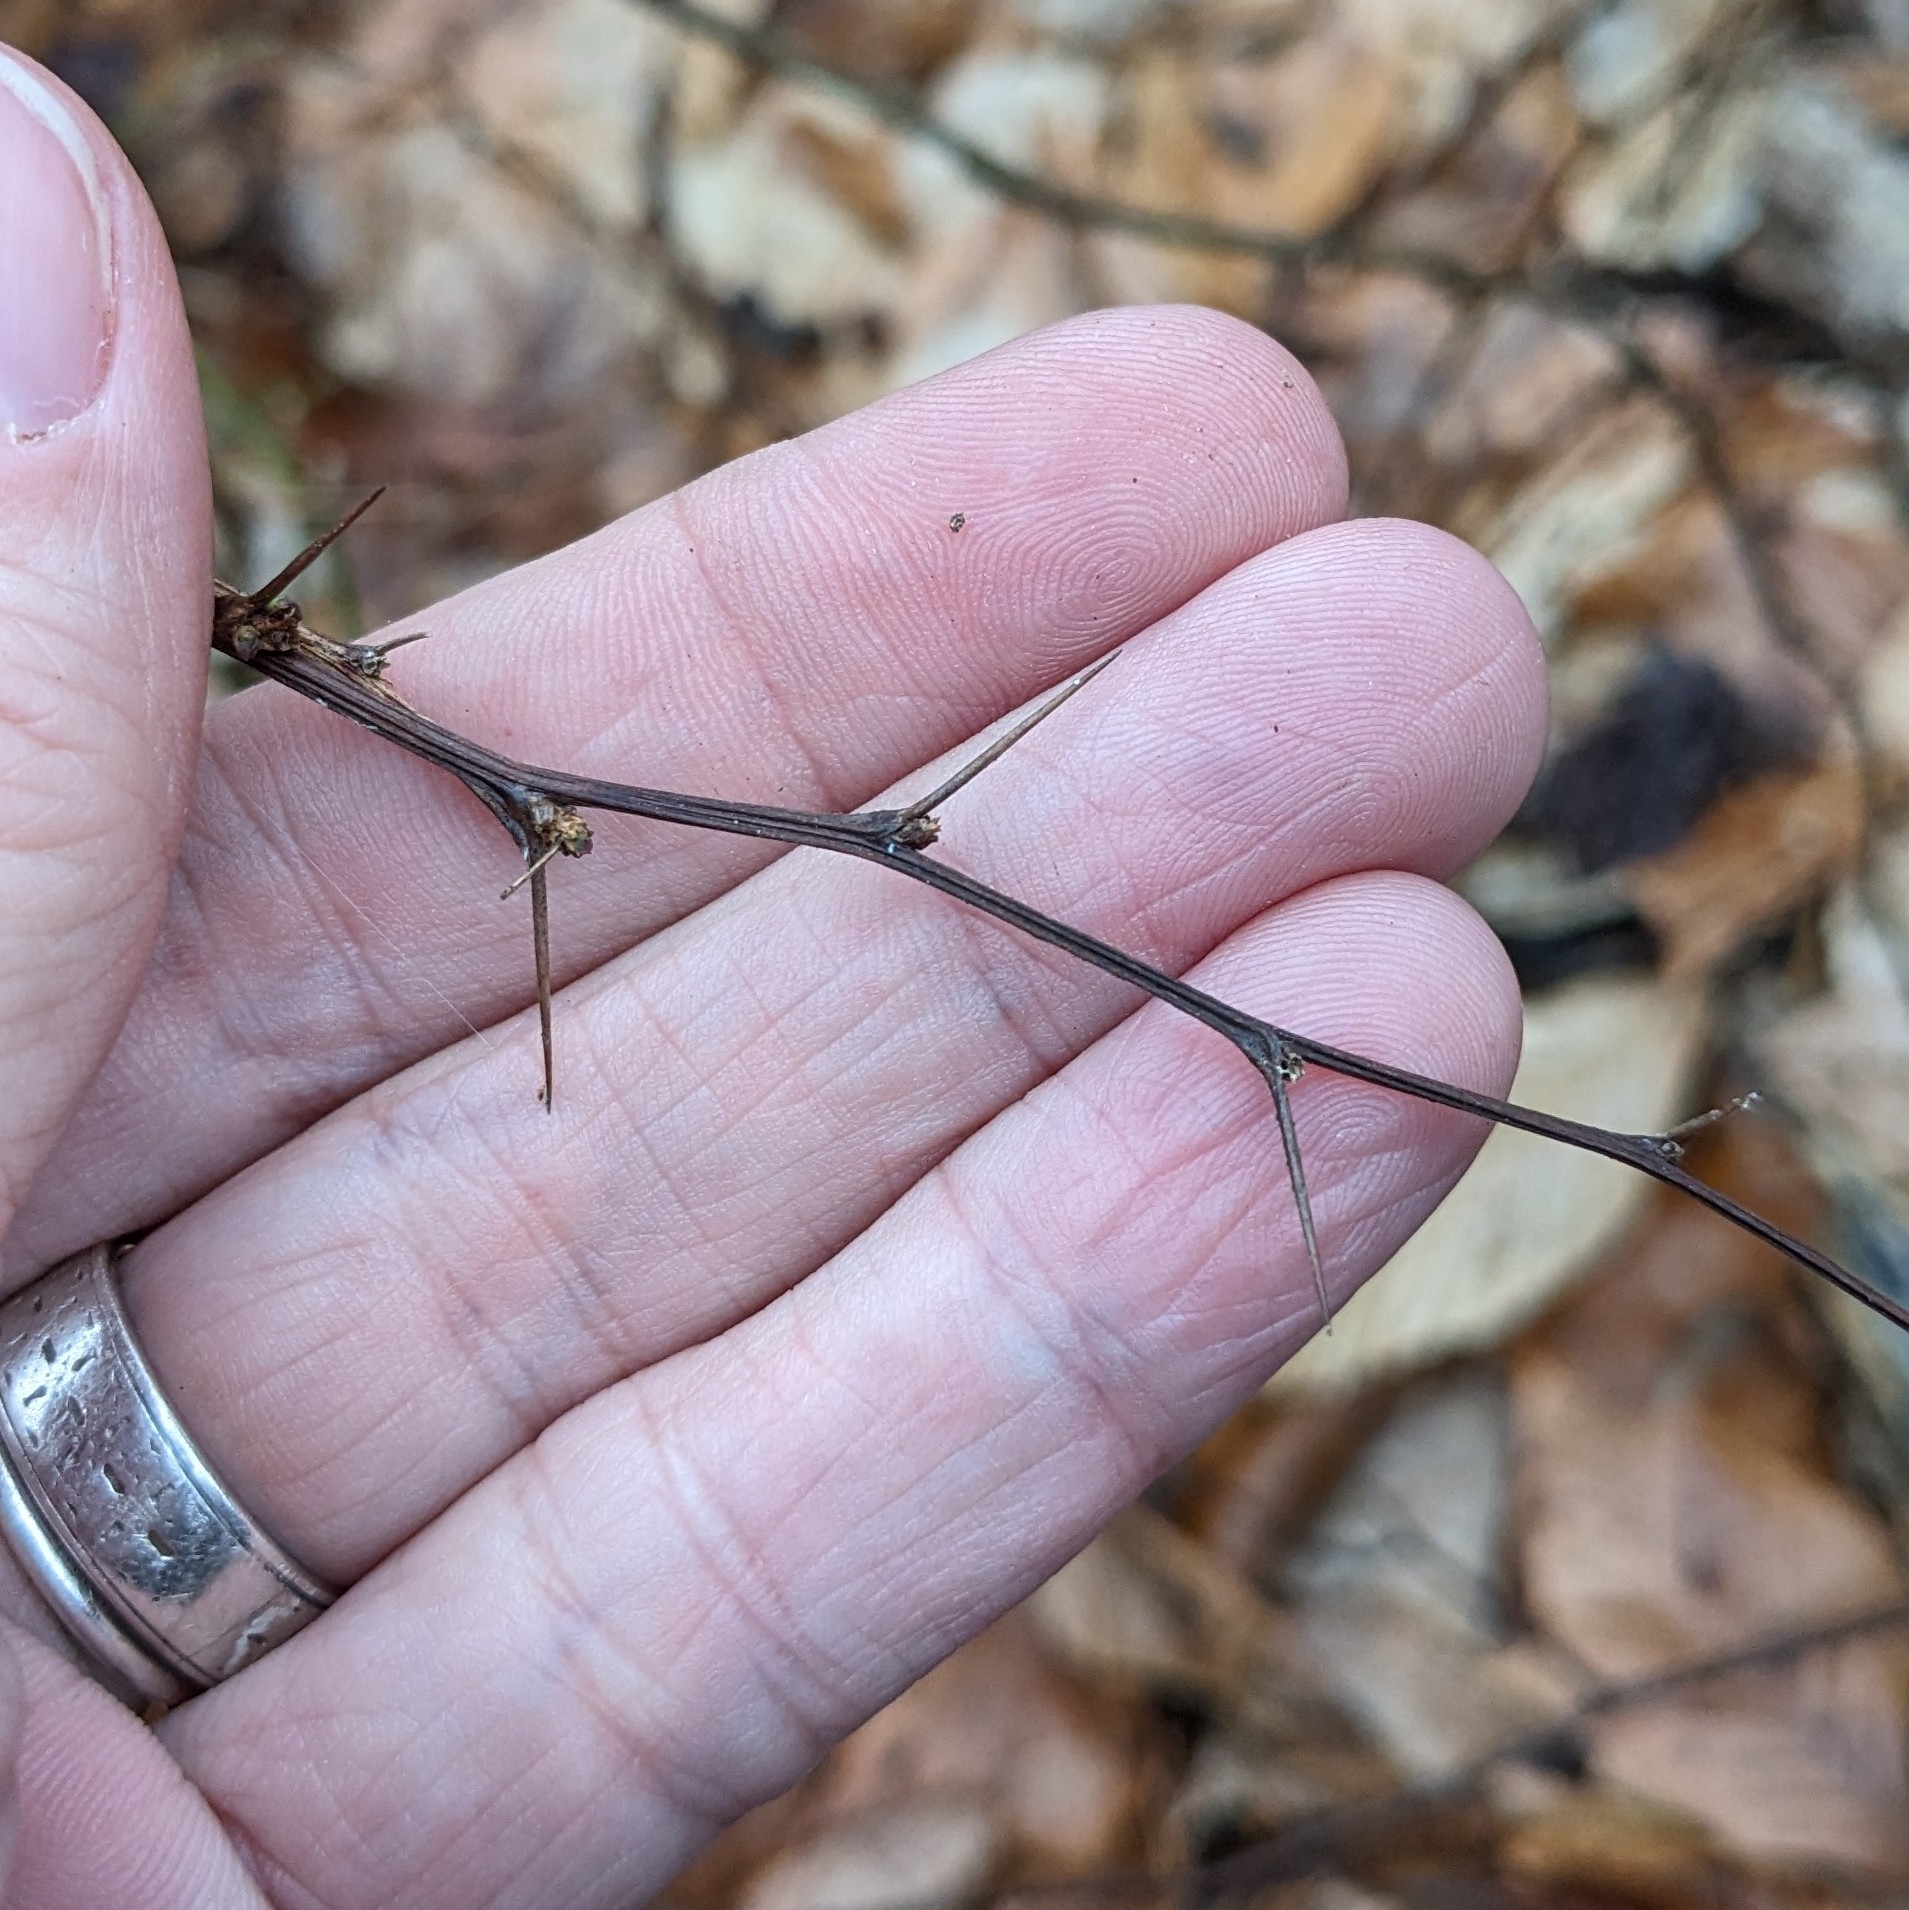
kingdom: Plantae
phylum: Tracheophyta
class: Magnoliopsida
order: Ranunculales
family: Berberidaceae
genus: Berberis
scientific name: Berberis thunbergii
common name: Japanese barberry
